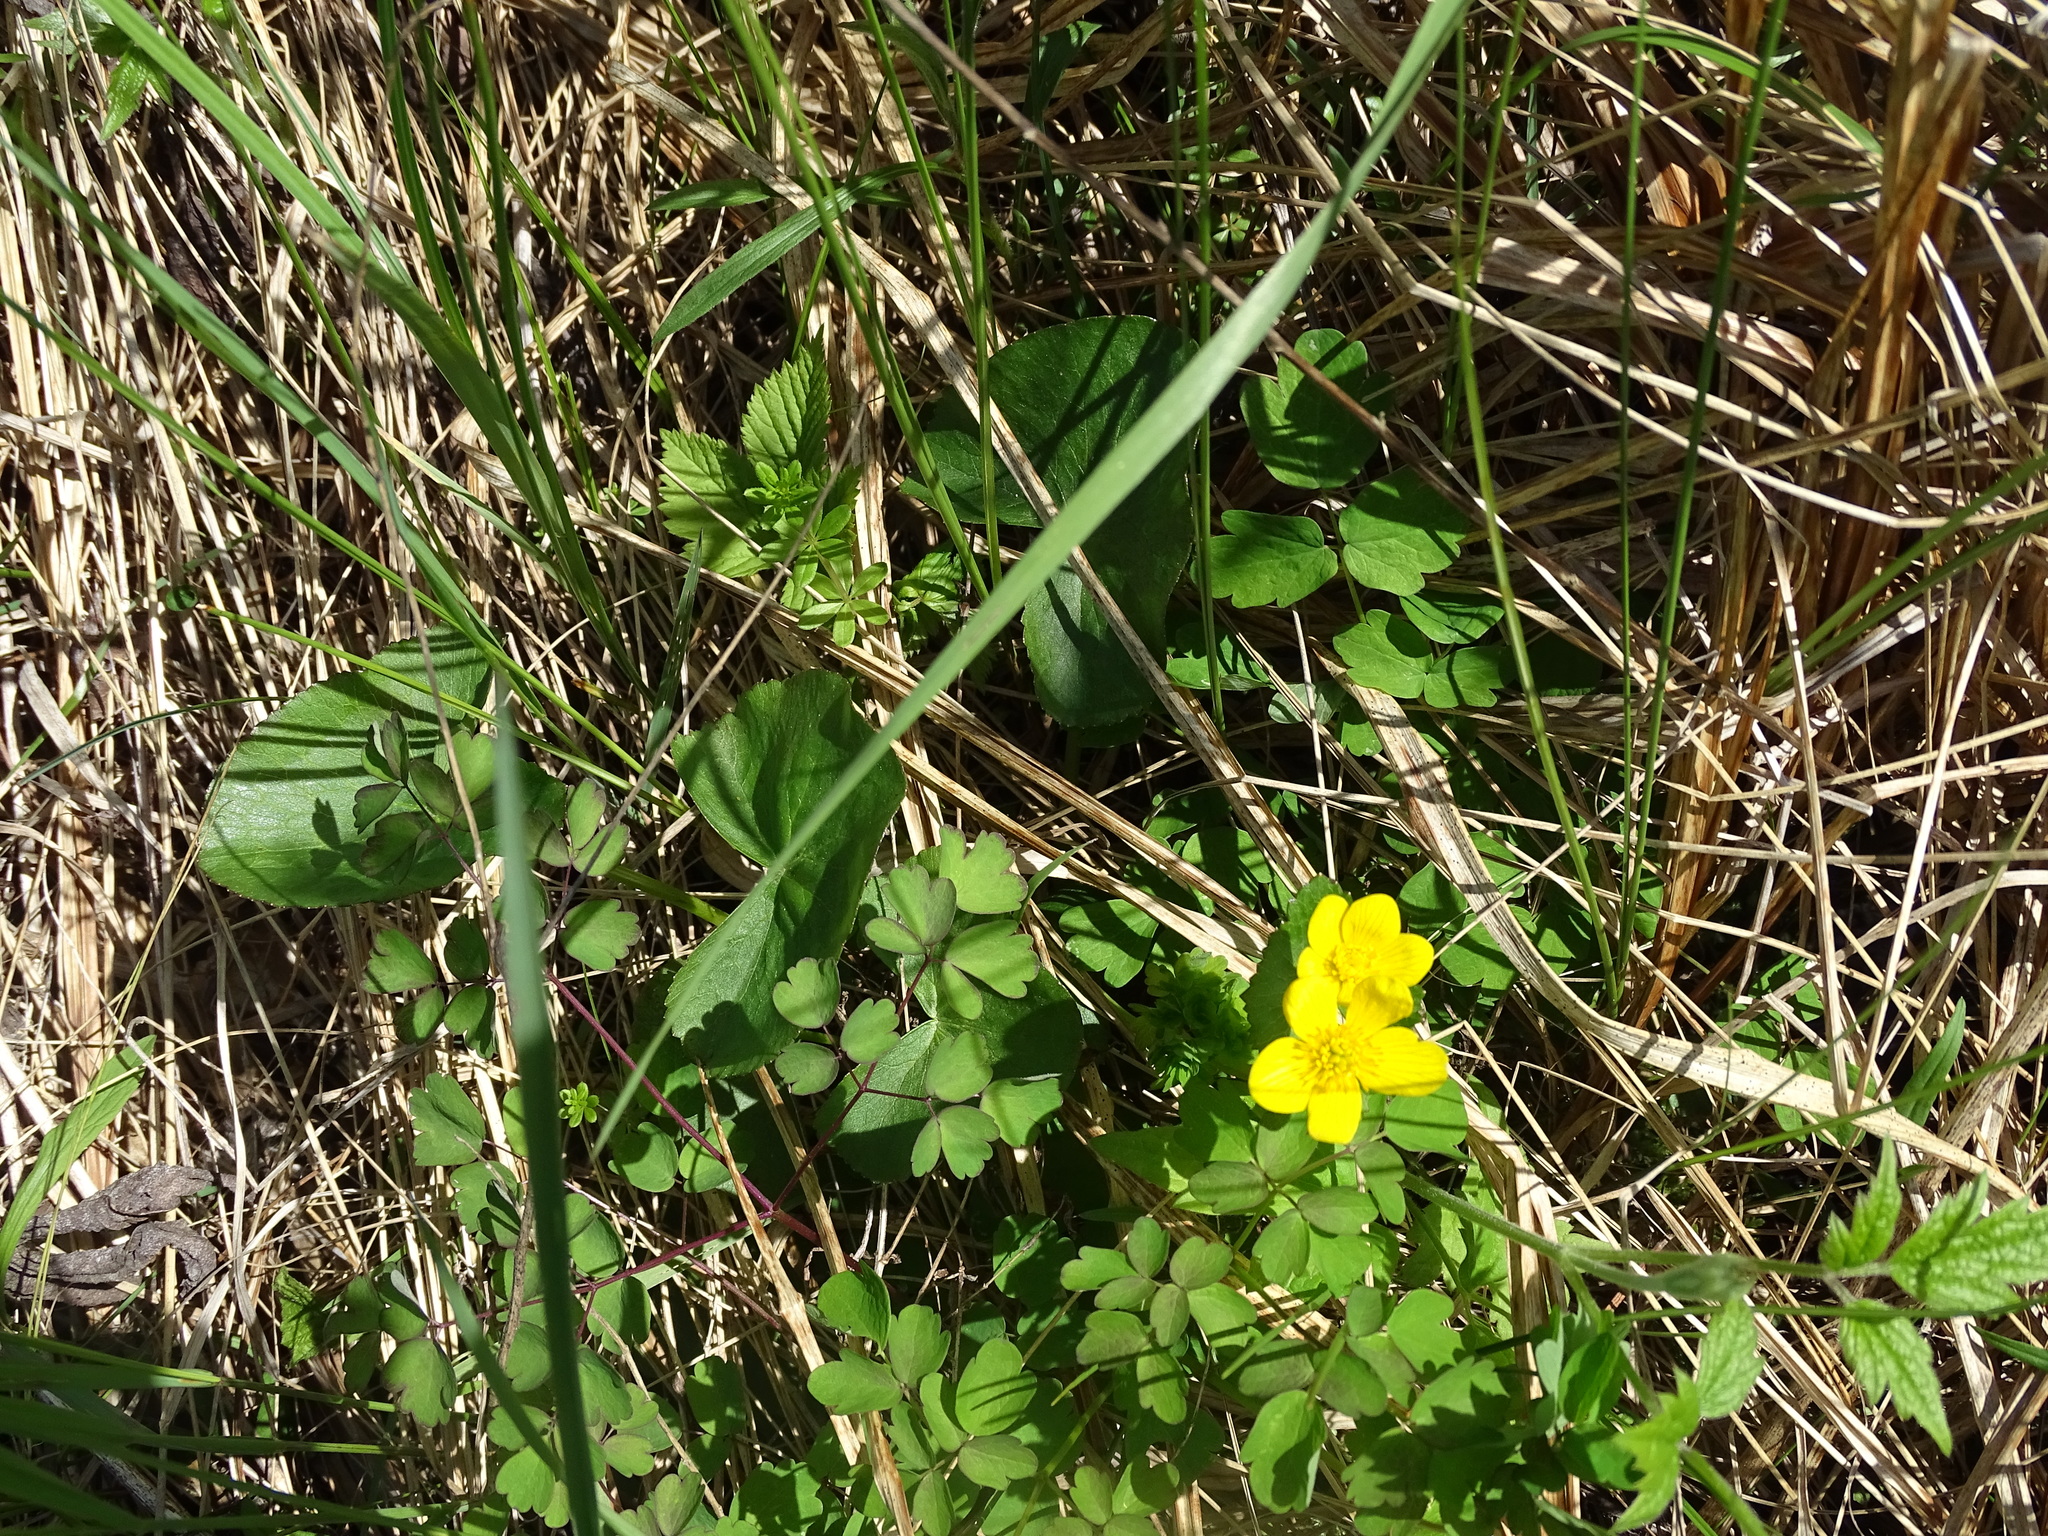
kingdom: Plantae
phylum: Tracheophyta
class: Magnoliopsida
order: Ranunculales
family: Ranunculaceae
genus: Caltha
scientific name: Caltha palustris
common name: Marsh marigold
